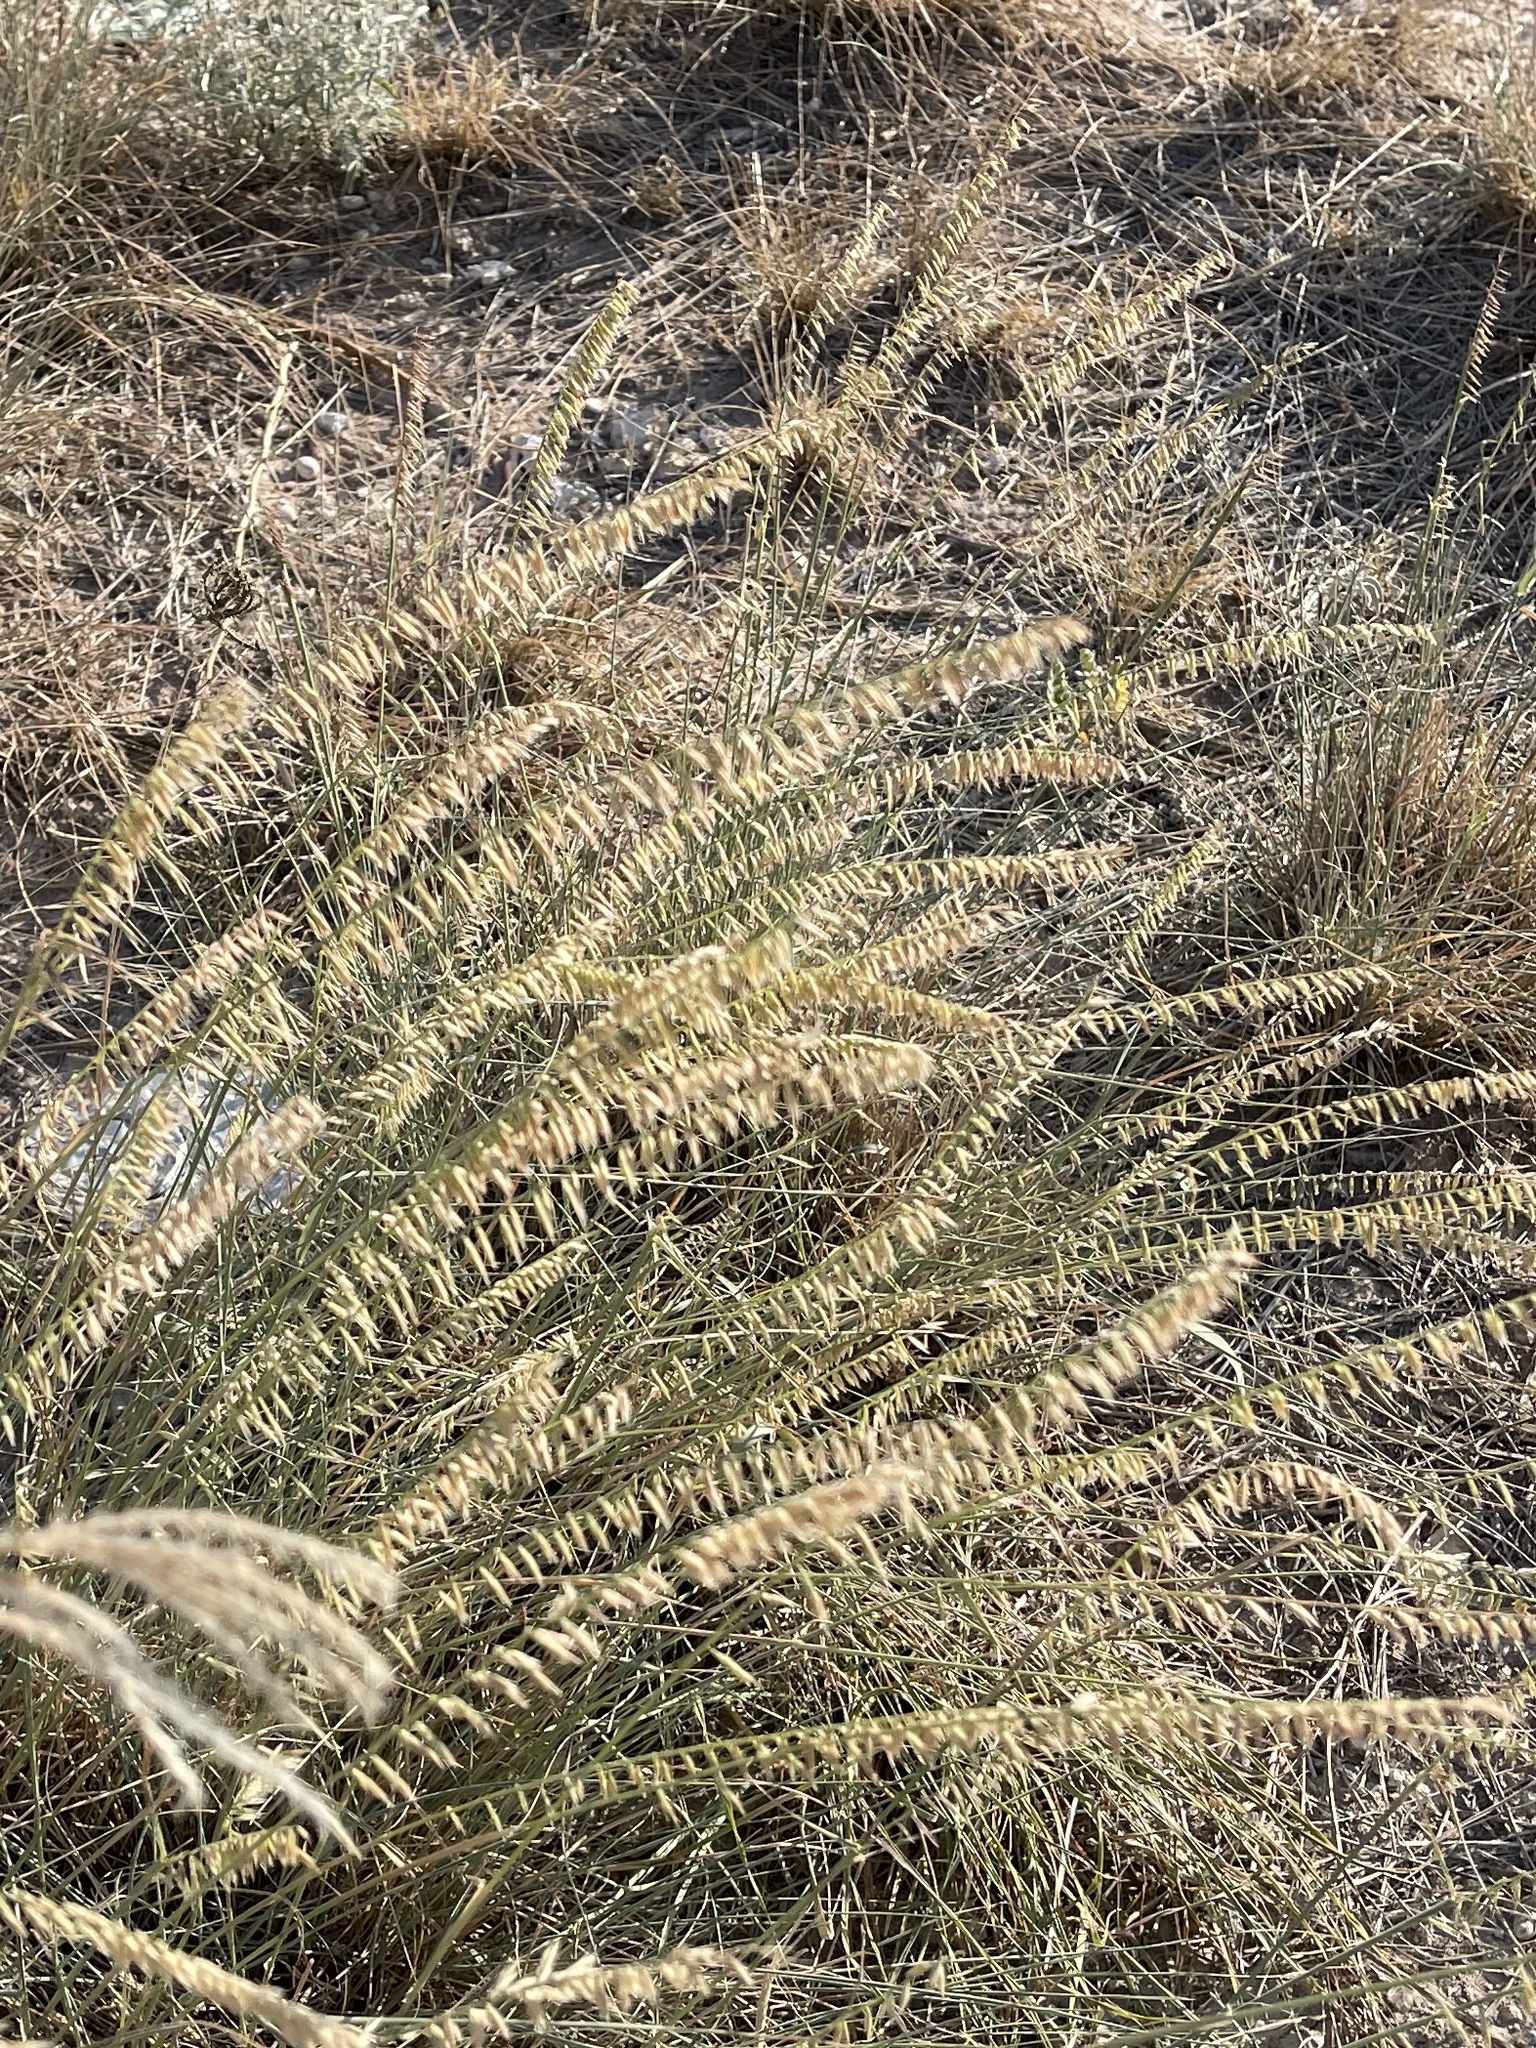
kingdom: Plantae
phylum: Tracheophyta
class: Liliopsida
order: Poales
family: Poaceae
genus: Bouteloua
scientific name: Bouteloua curtipendula
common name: Side-oats grama
